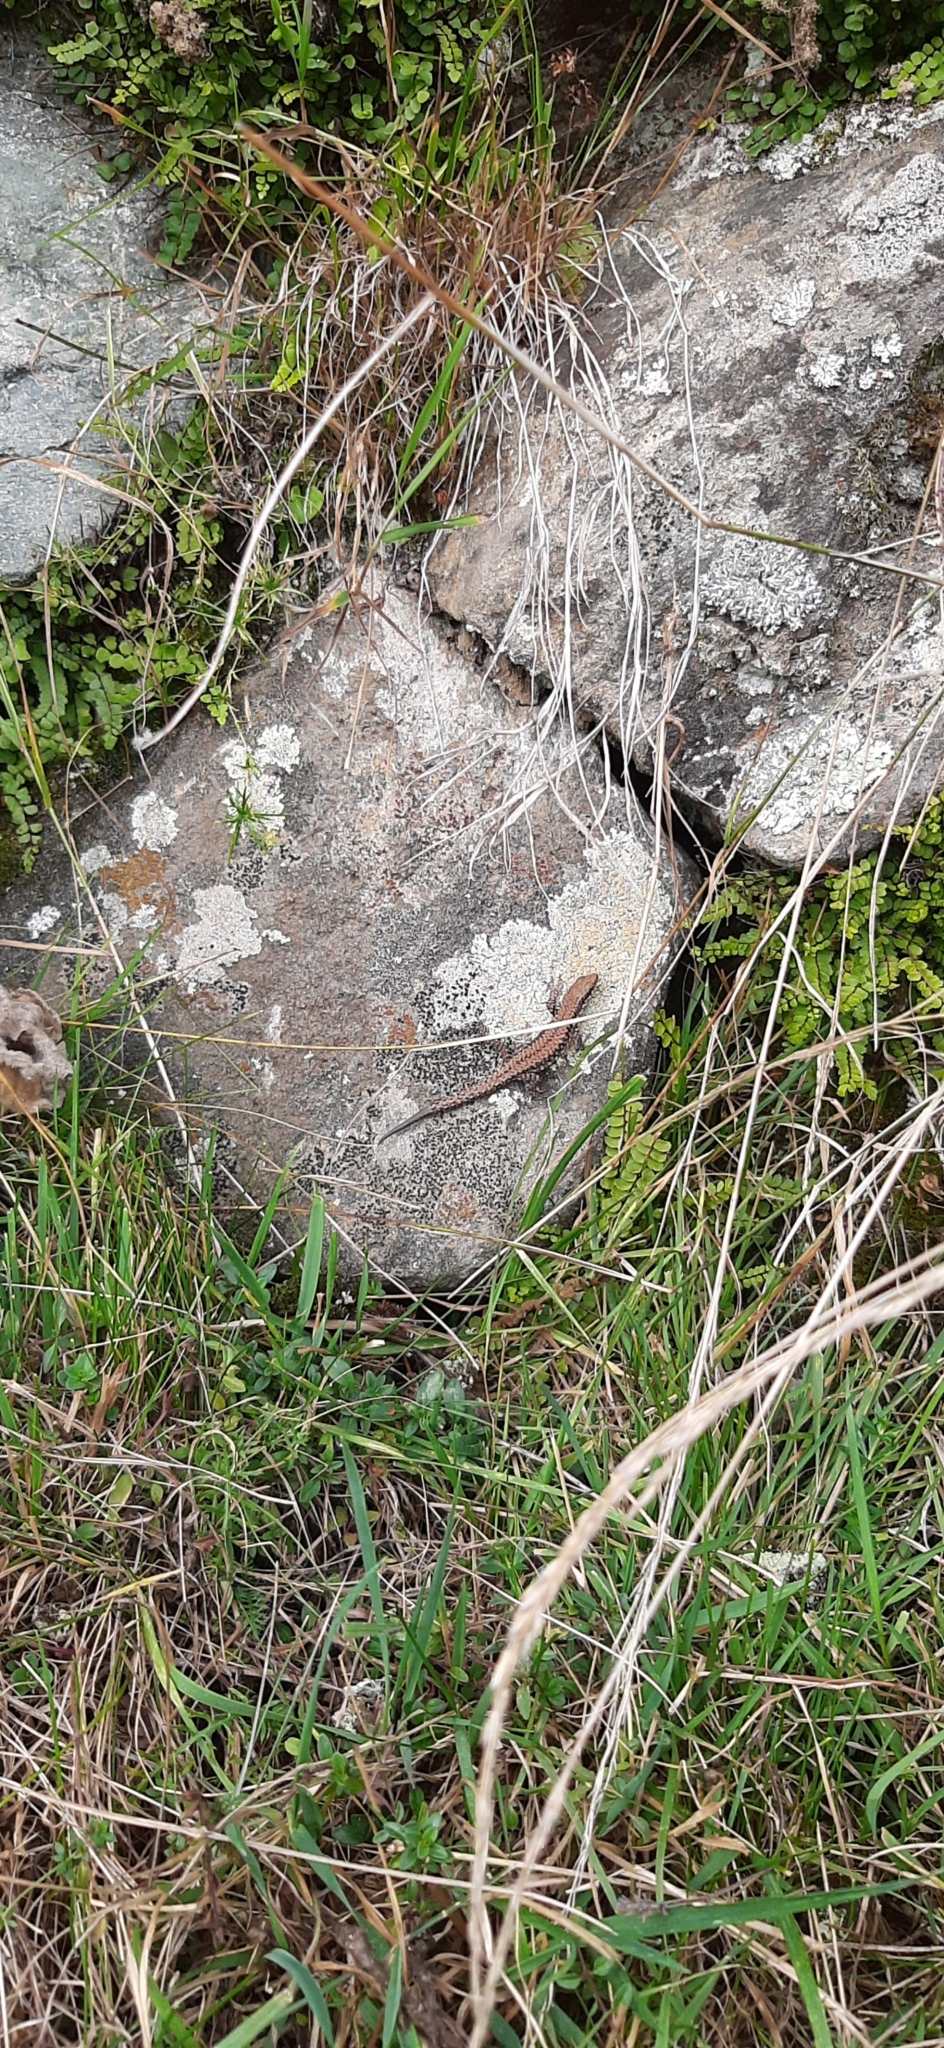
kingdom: Animalia
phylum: Chordata
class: Squamata
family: Lacertidae
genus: Podarcis
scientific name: Podarcis muralis
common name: Common wall lizard
